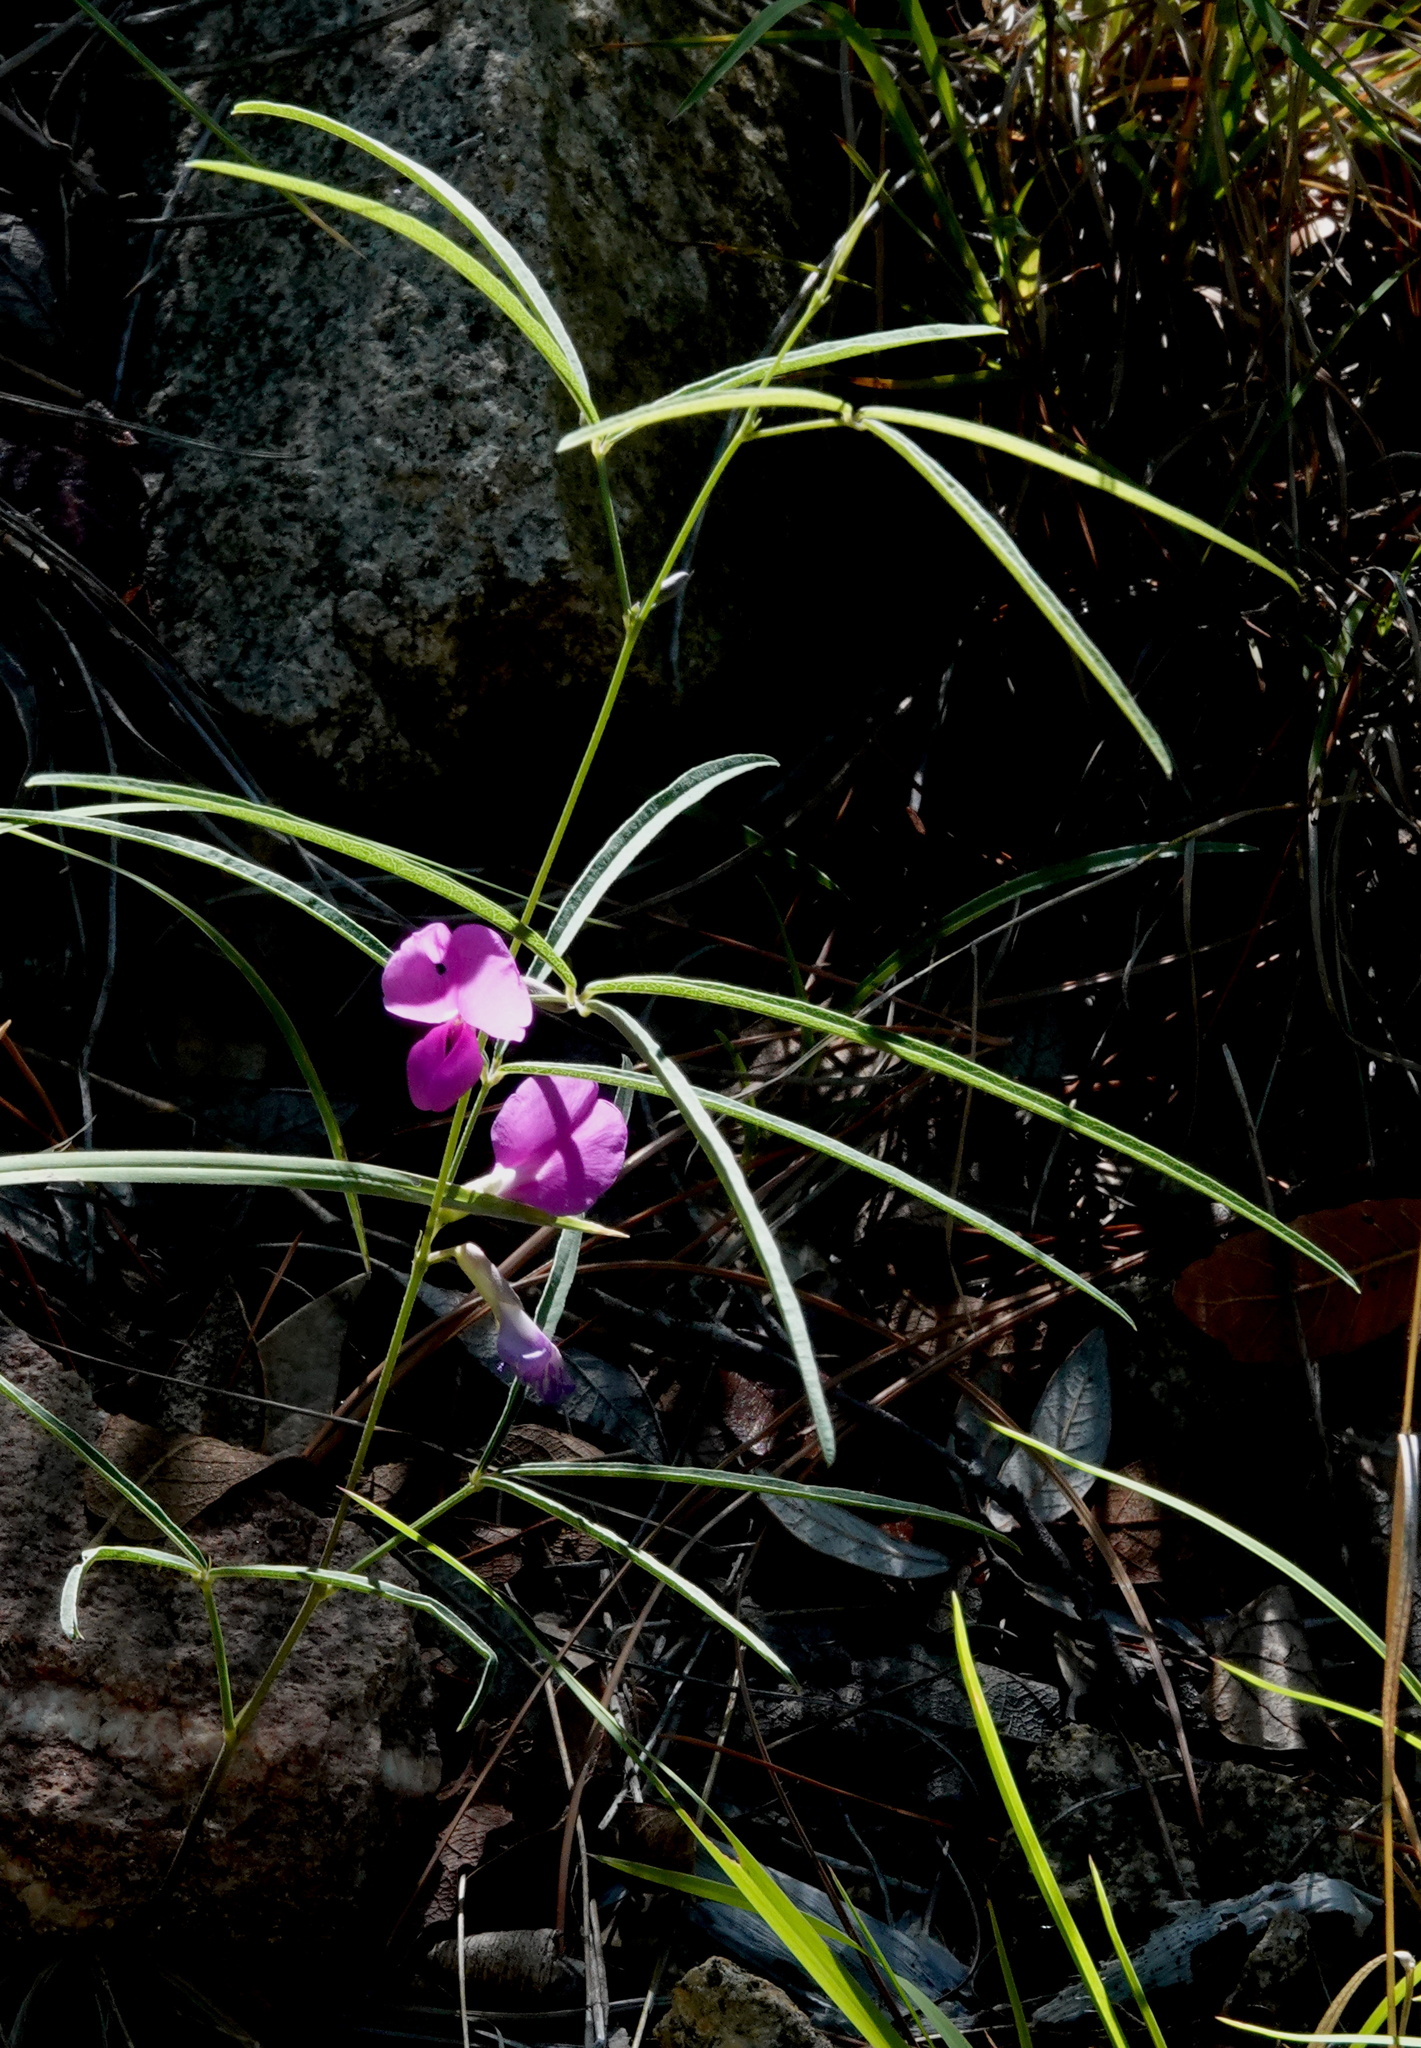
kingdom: Plantae
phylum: Tracheophyta
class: Magnoliopsida
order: Fabales
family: Fabaceae
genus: Cologania
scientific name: Cologania angustifolia
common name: Longleaf cologania
